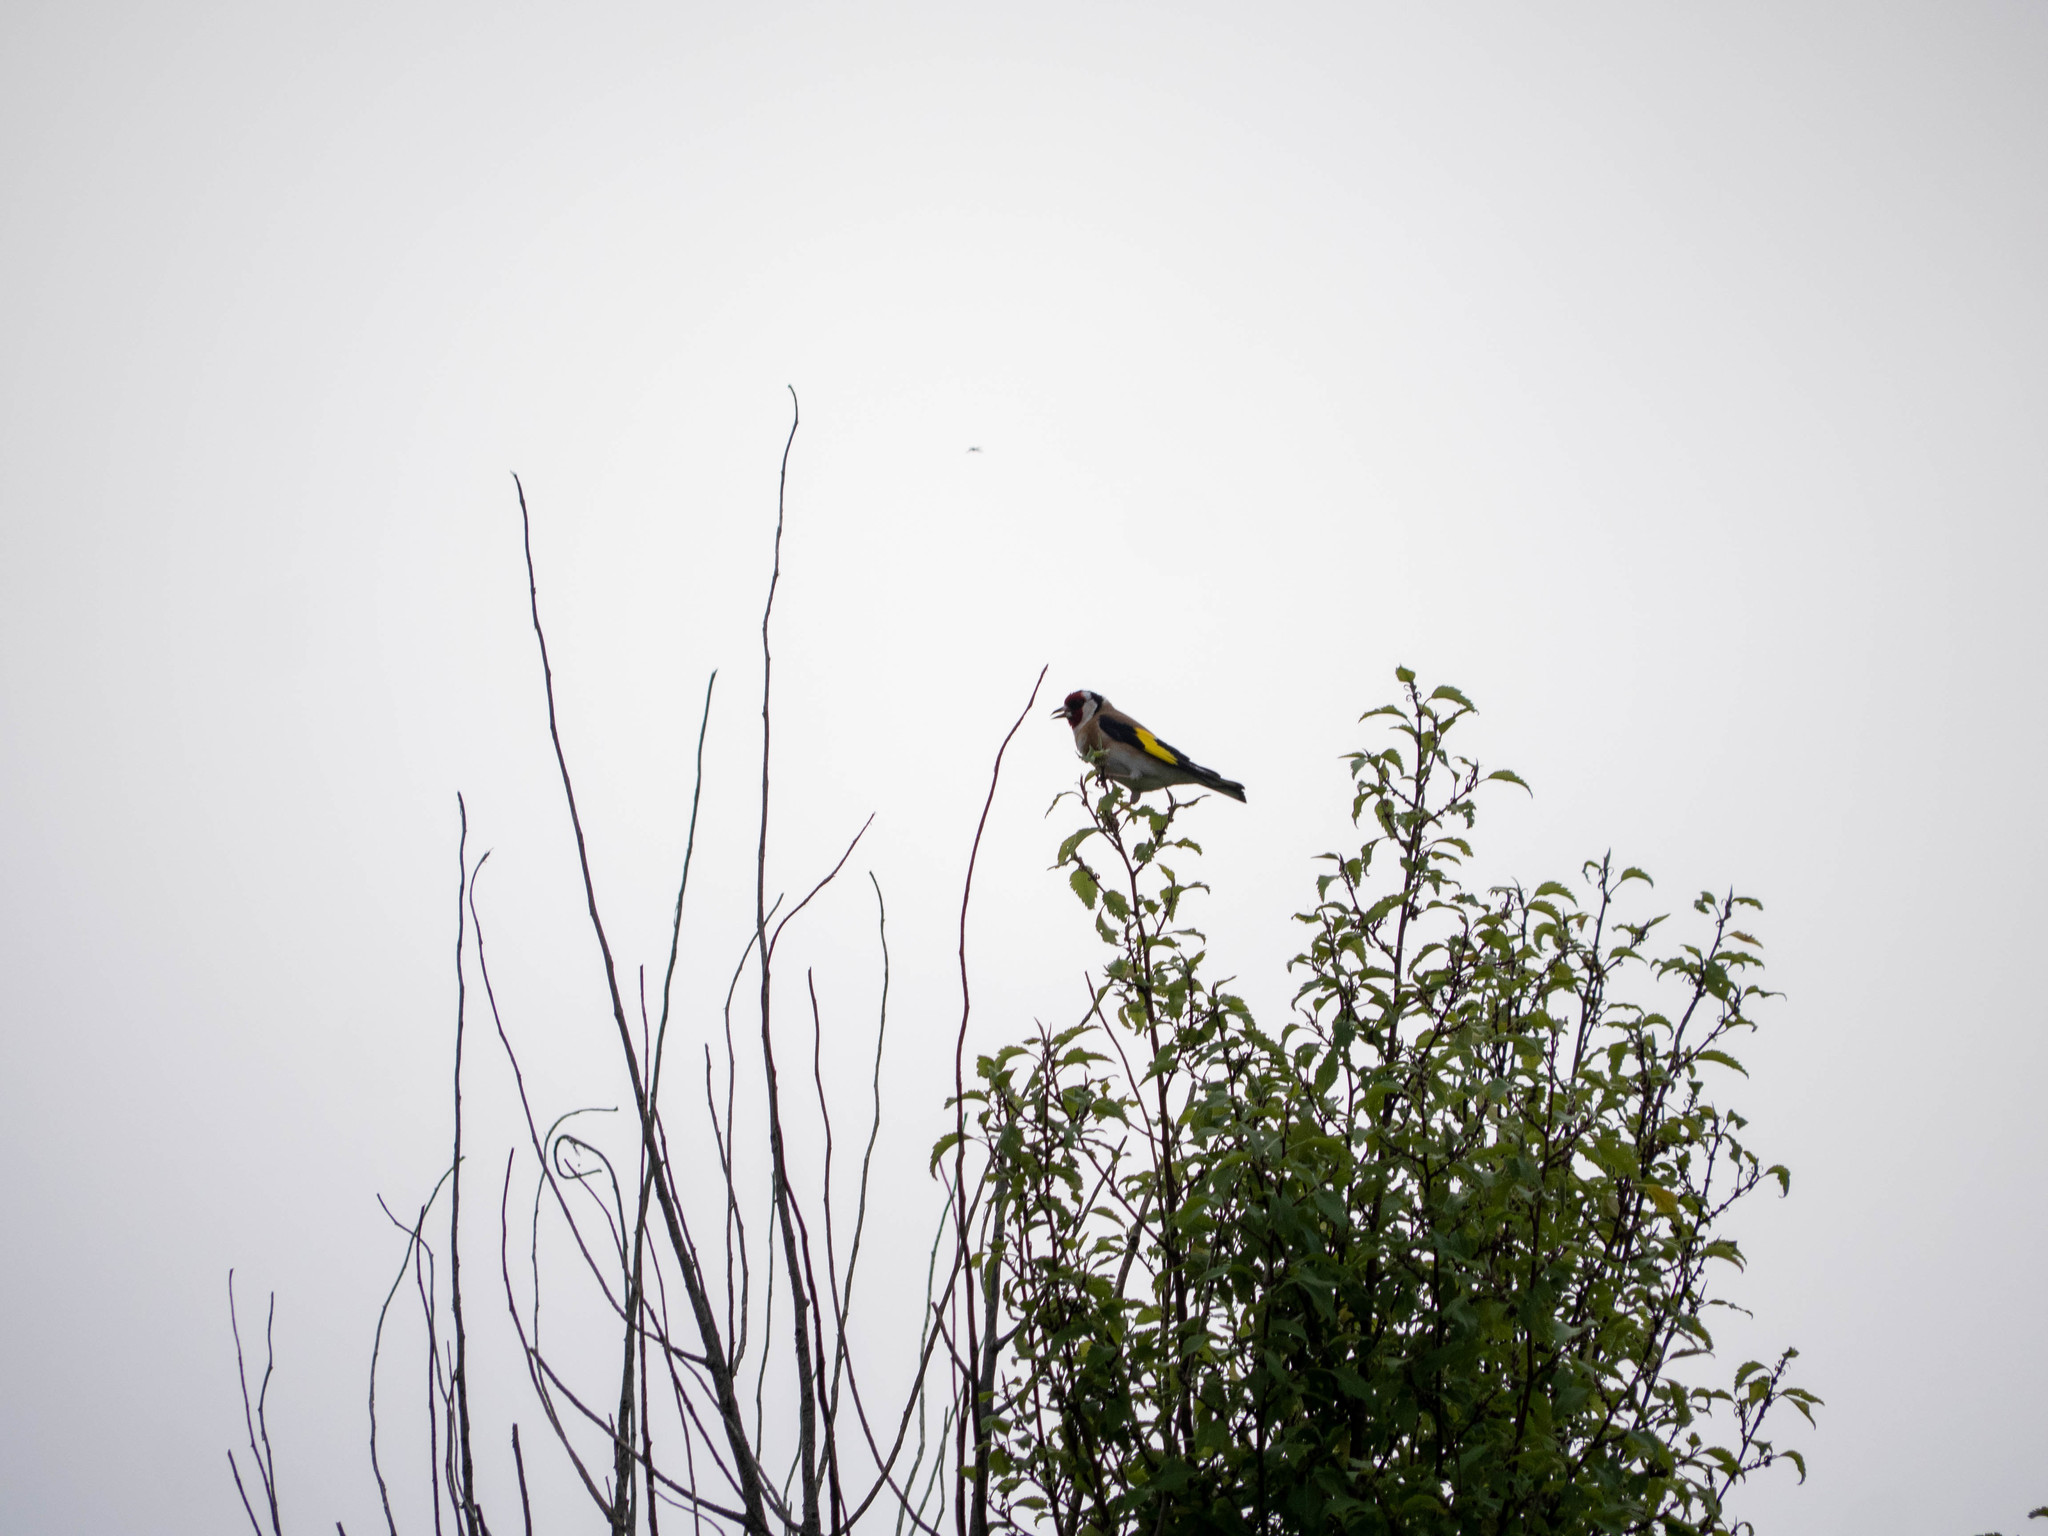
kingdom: Animalia
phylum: Chordata
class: Aves
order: Passeriformes
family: Fringillidae
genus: Carduelis
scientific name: Carduelis carduelis
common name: European goldfinch
